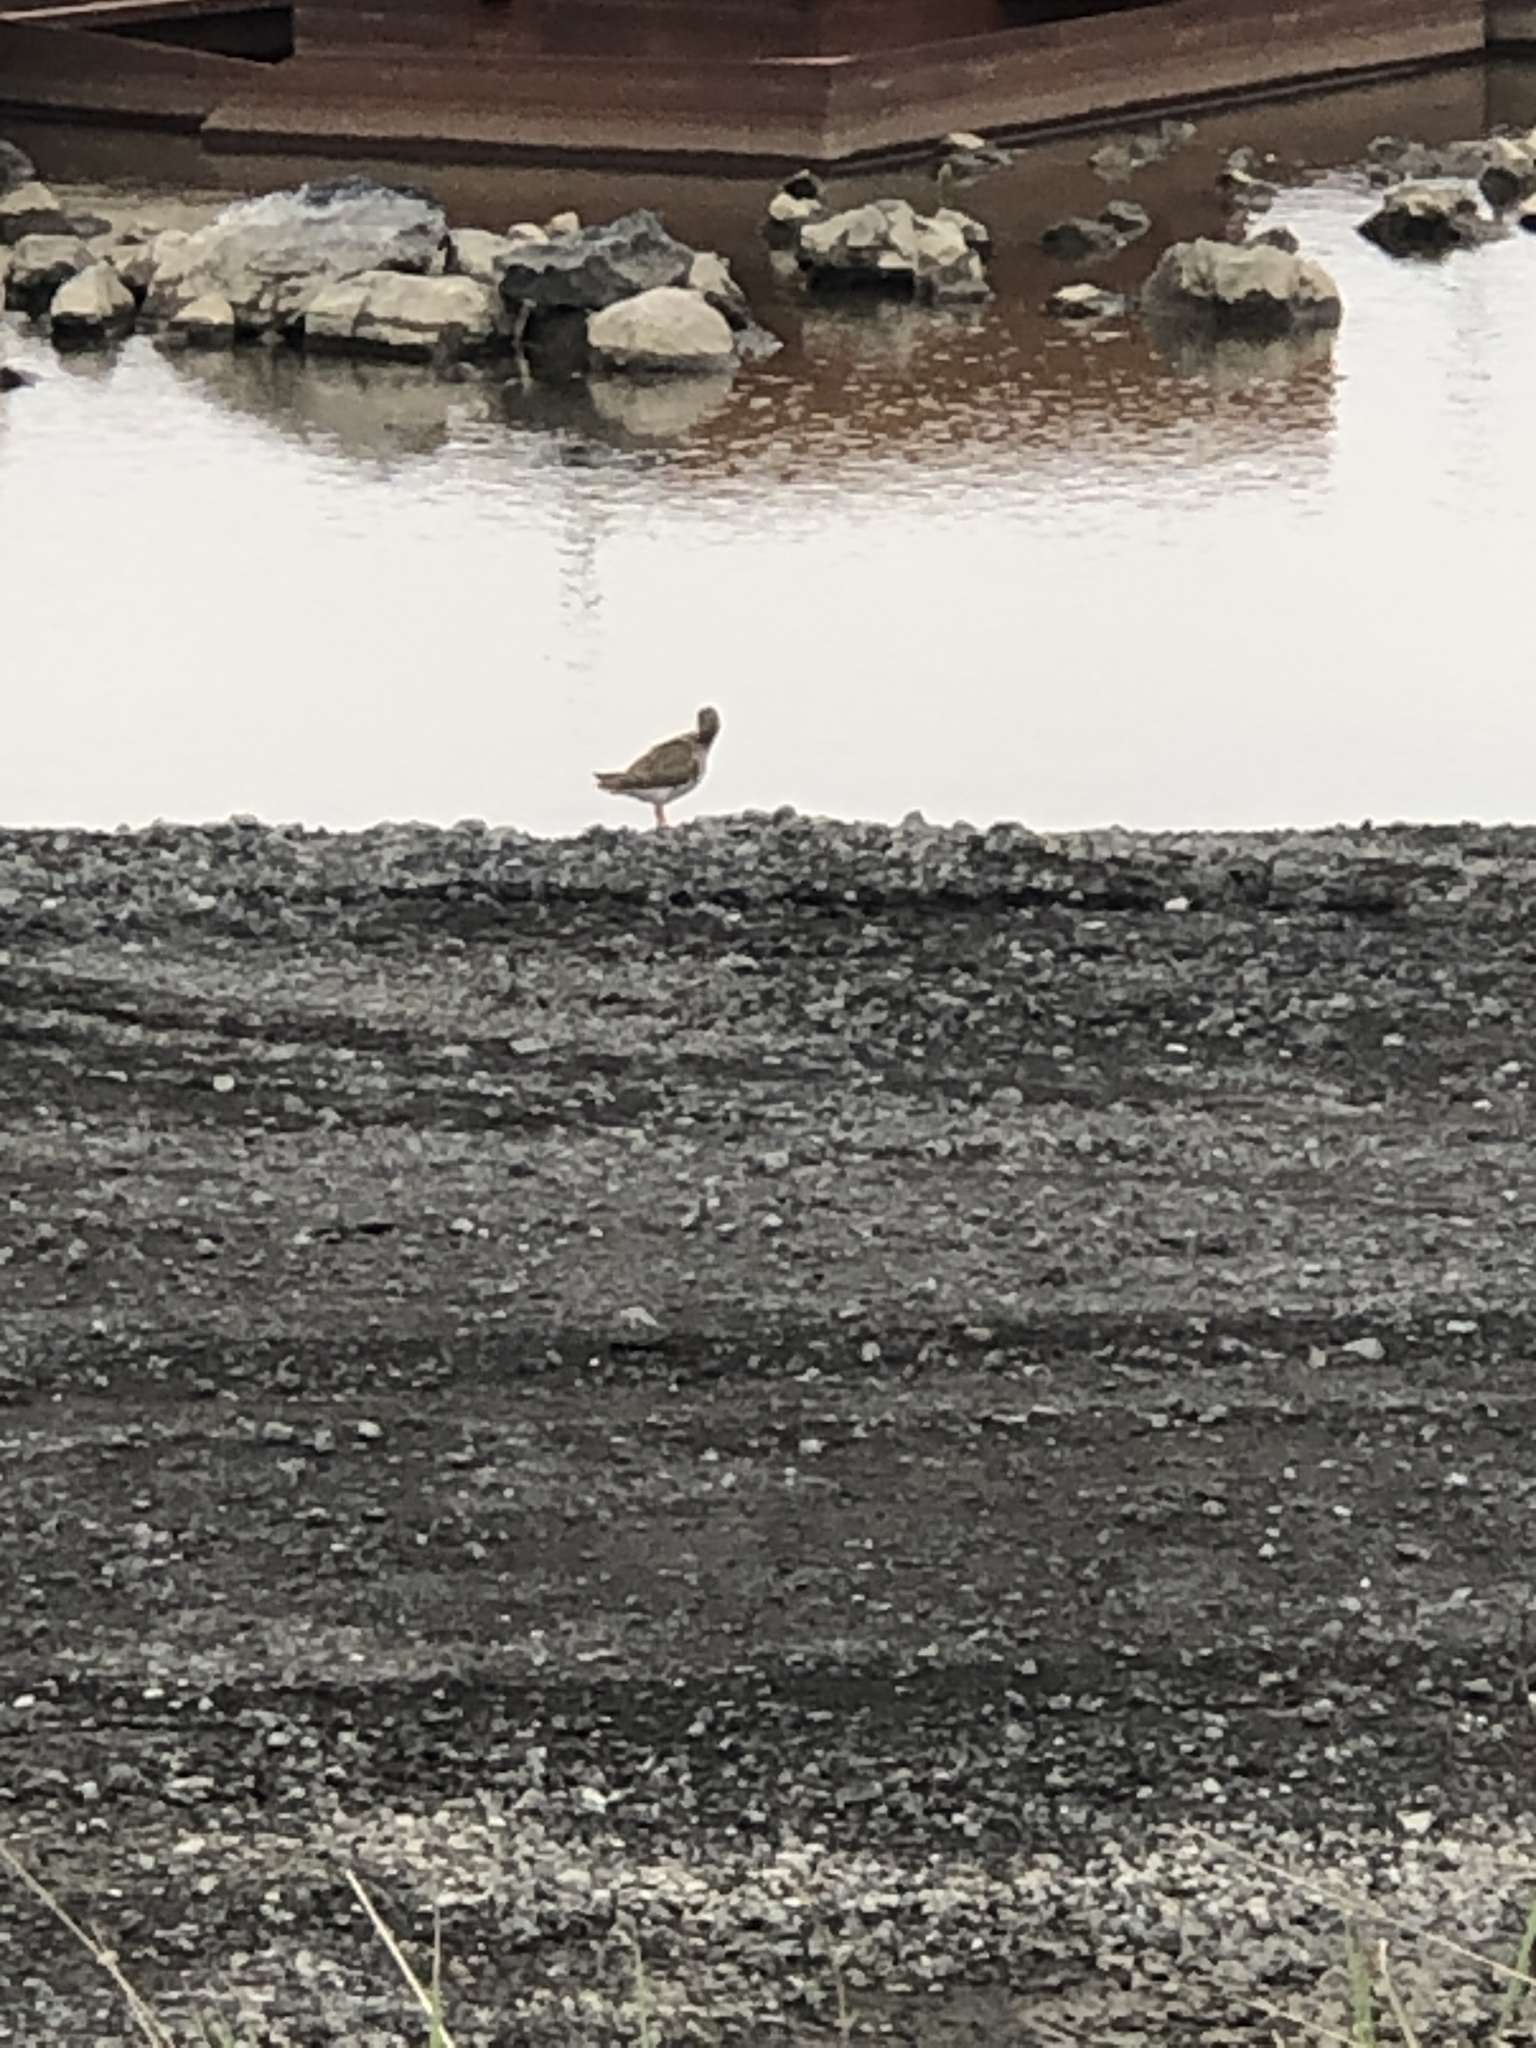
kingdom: Animalia
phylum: Chordata
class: Aves
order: Charadriiformes
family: Scolopacidae
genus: Tringa
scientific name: Tringa totanus
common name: Common redshank
